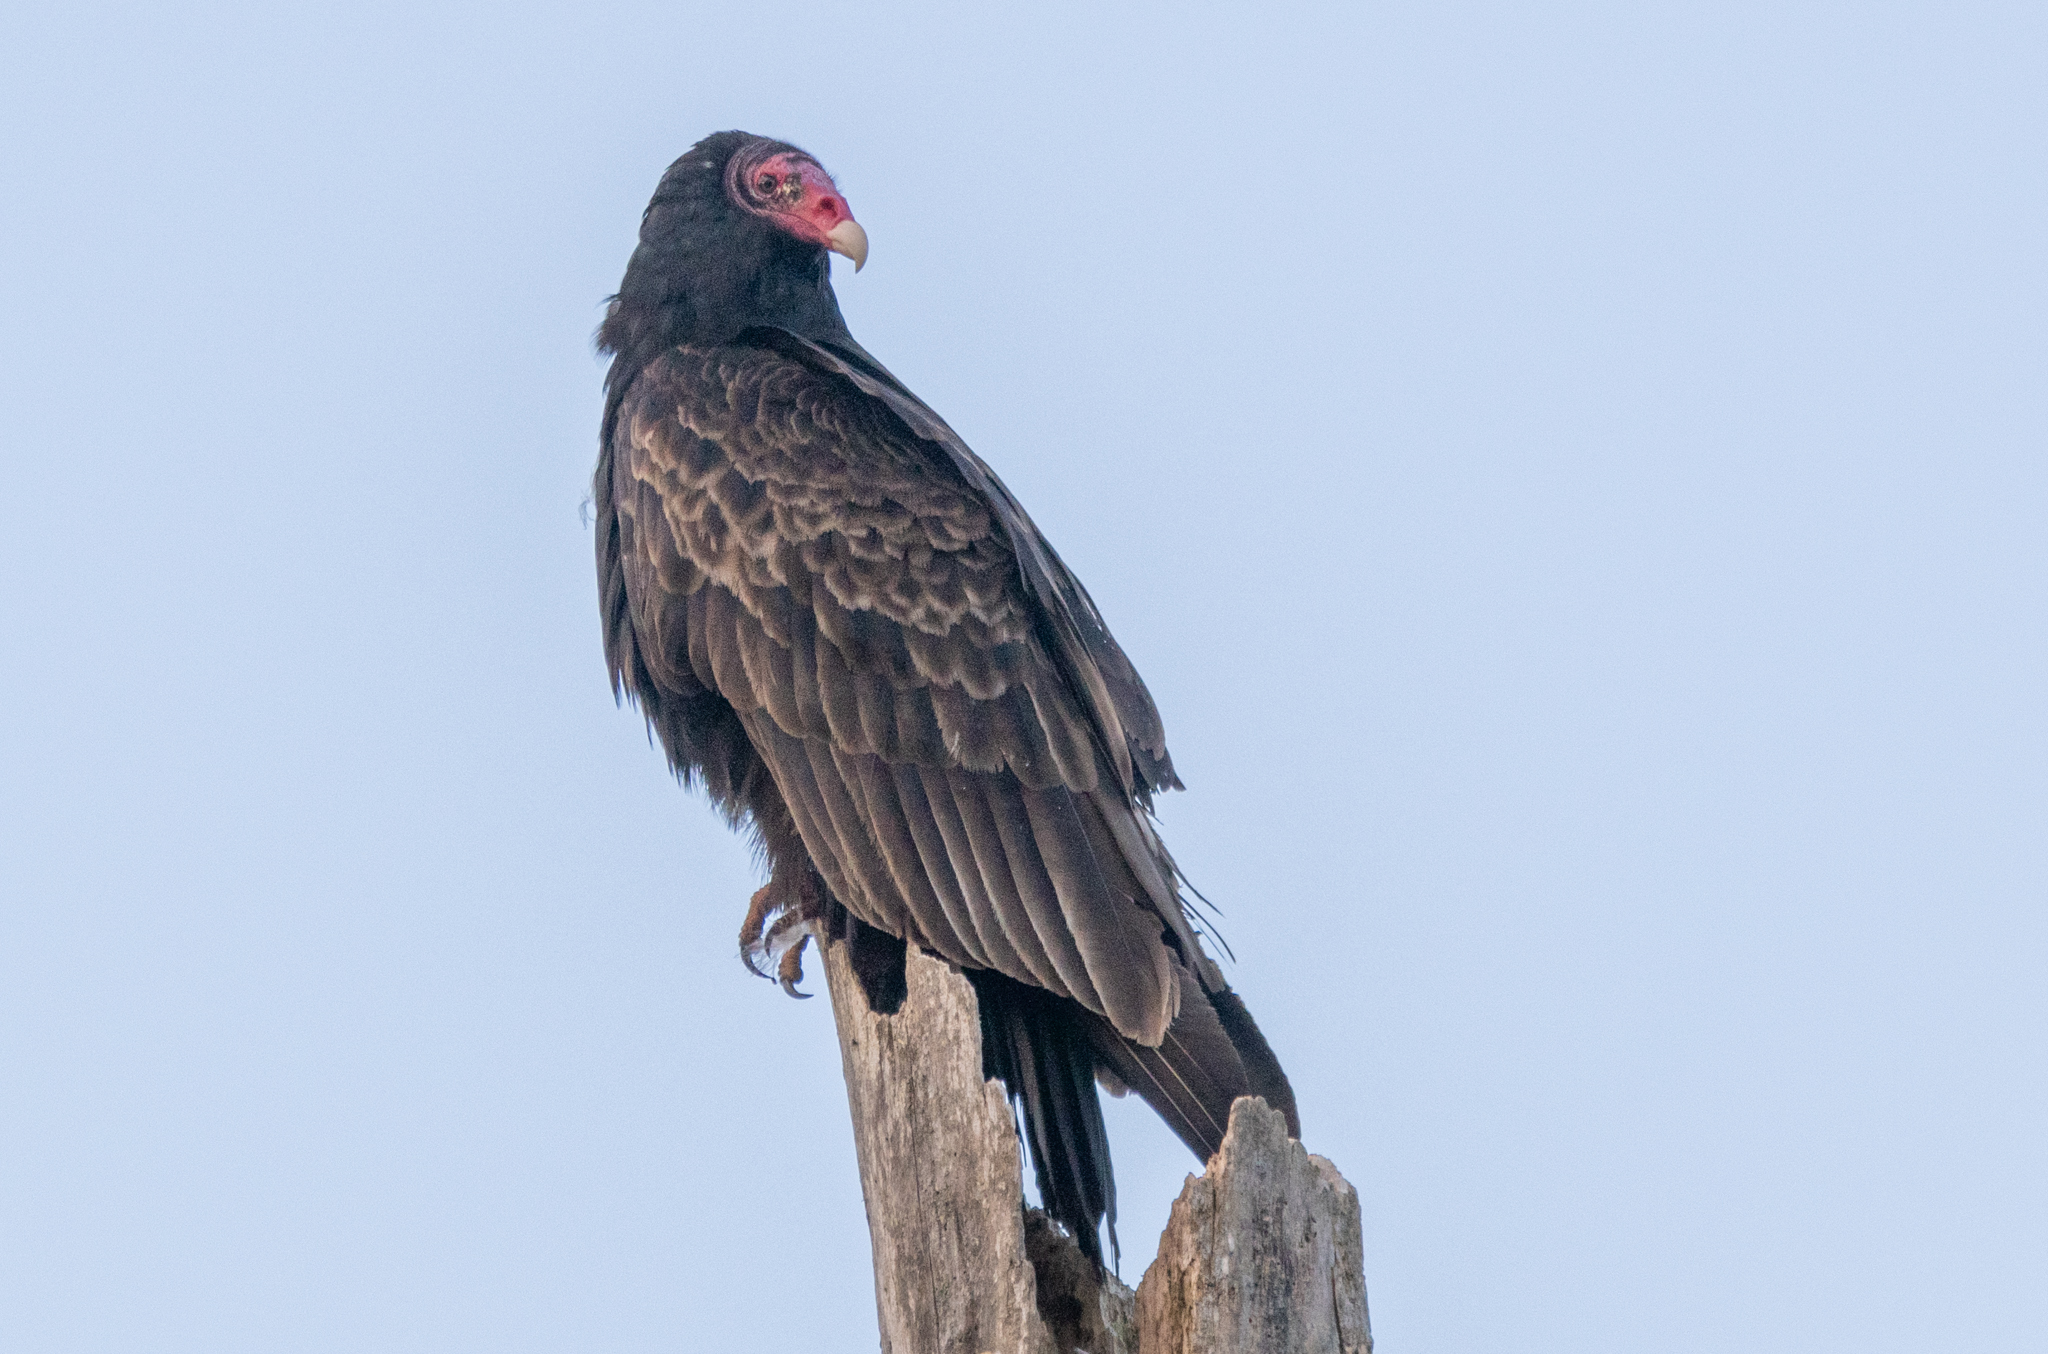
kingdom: Animalia
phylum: Chordata
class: Aves
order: Accipitriformes
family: Cathartidae
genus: Cathartes
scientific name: Cathartes aura
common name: Turkey vulture
